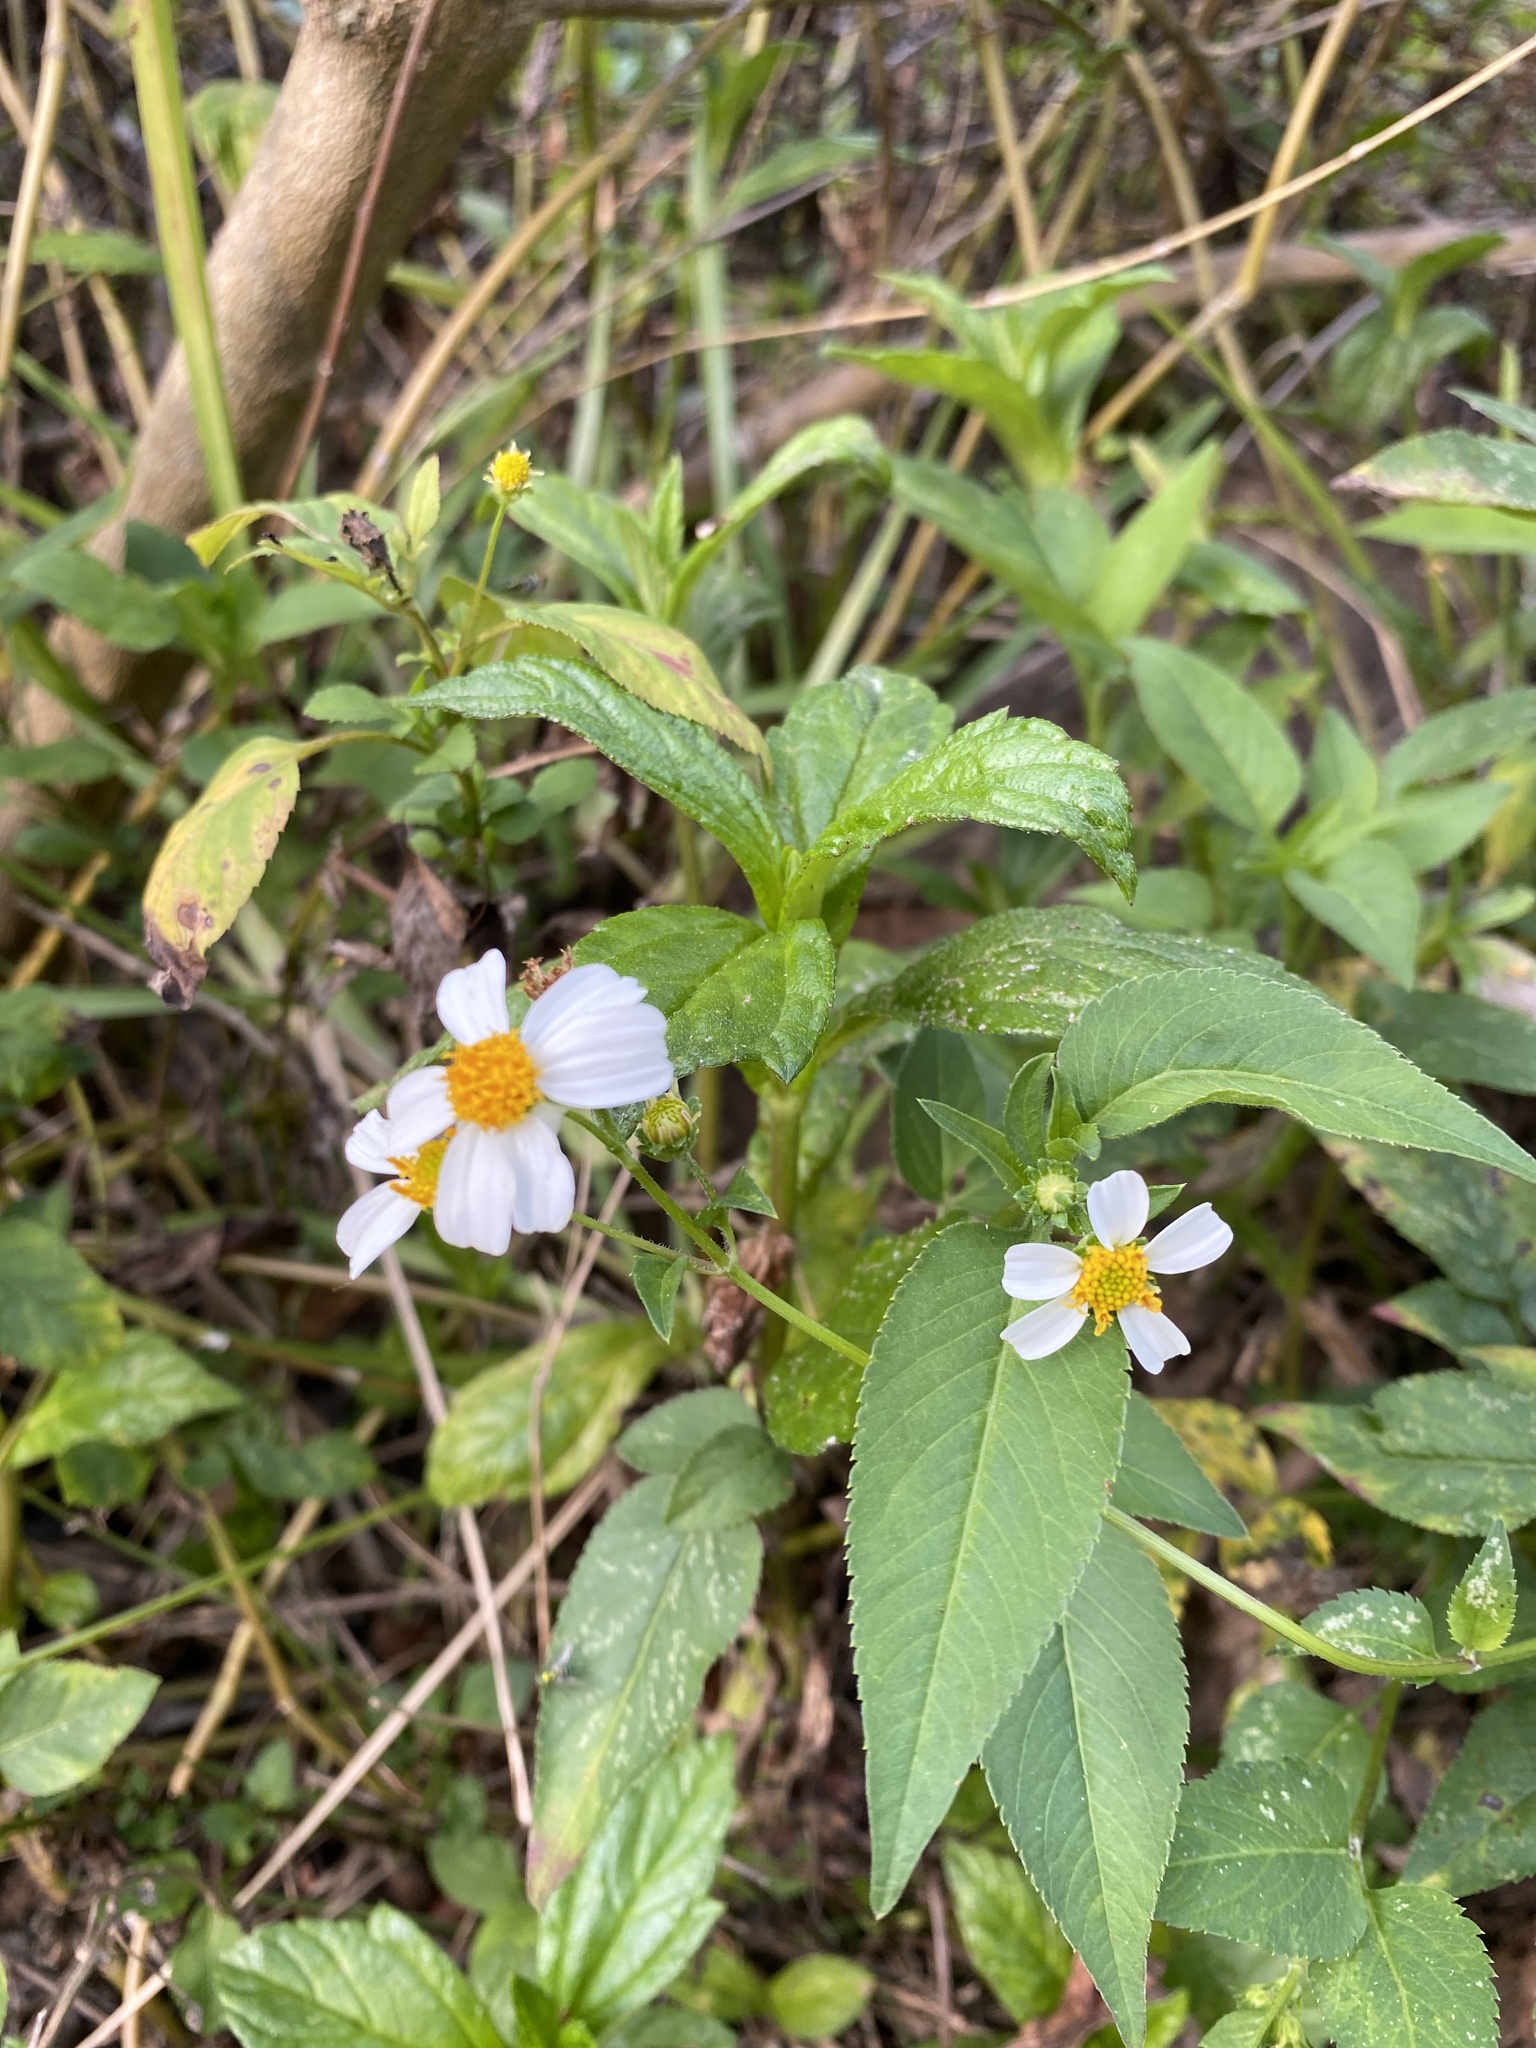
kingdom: Plantae
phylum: Tracheophyta
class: Magnoliopsida
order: Asterales
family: Asteraceae
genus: Bidens
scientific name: Bidens alba
